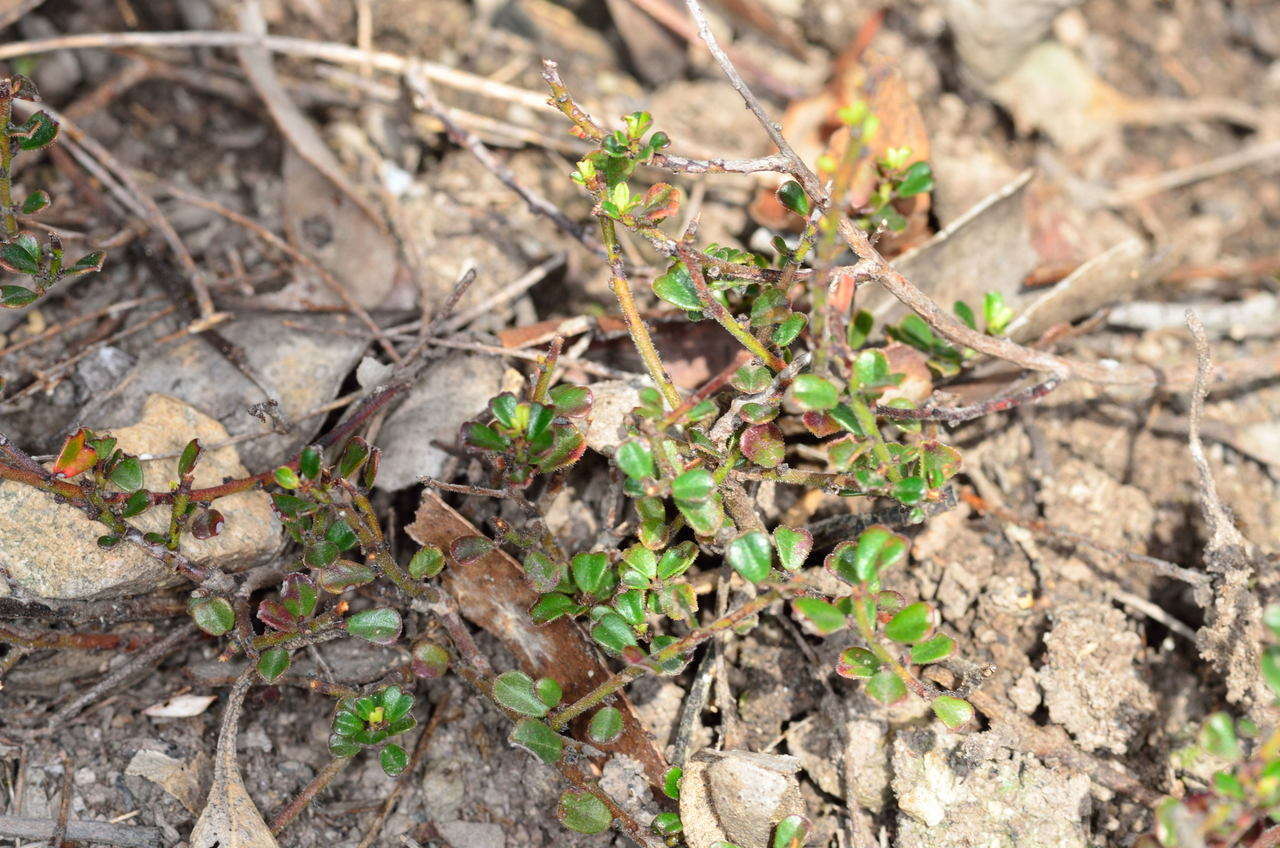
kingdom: Plantae
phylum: Tracheophyta
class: Magnoliopsida
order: Malpighiales
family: Phyllanthaceae
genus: Phyllanthus
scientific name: Phyllanthus hirtellus
